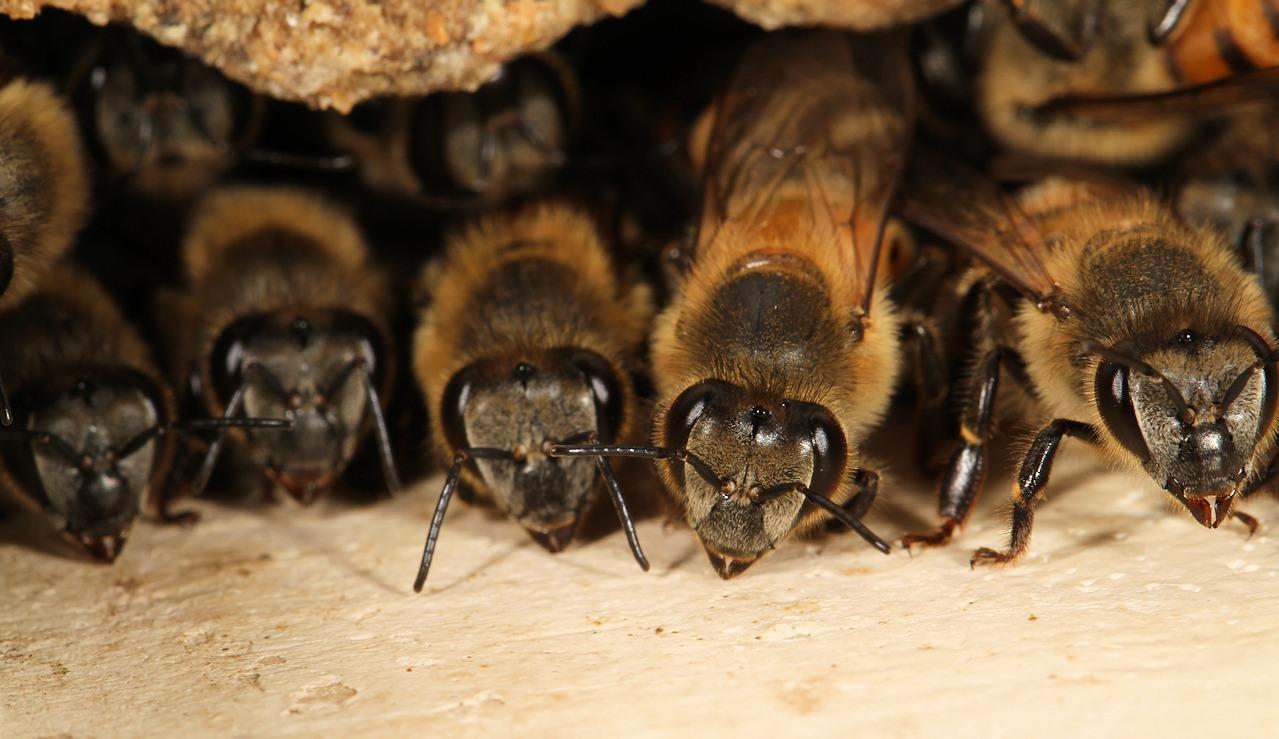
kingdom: Animalia
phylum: Arthropoda
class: Insecta
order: Hymenoptera
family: Apidae
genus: Apis
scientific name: Apis mellifera
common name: Honey bee
